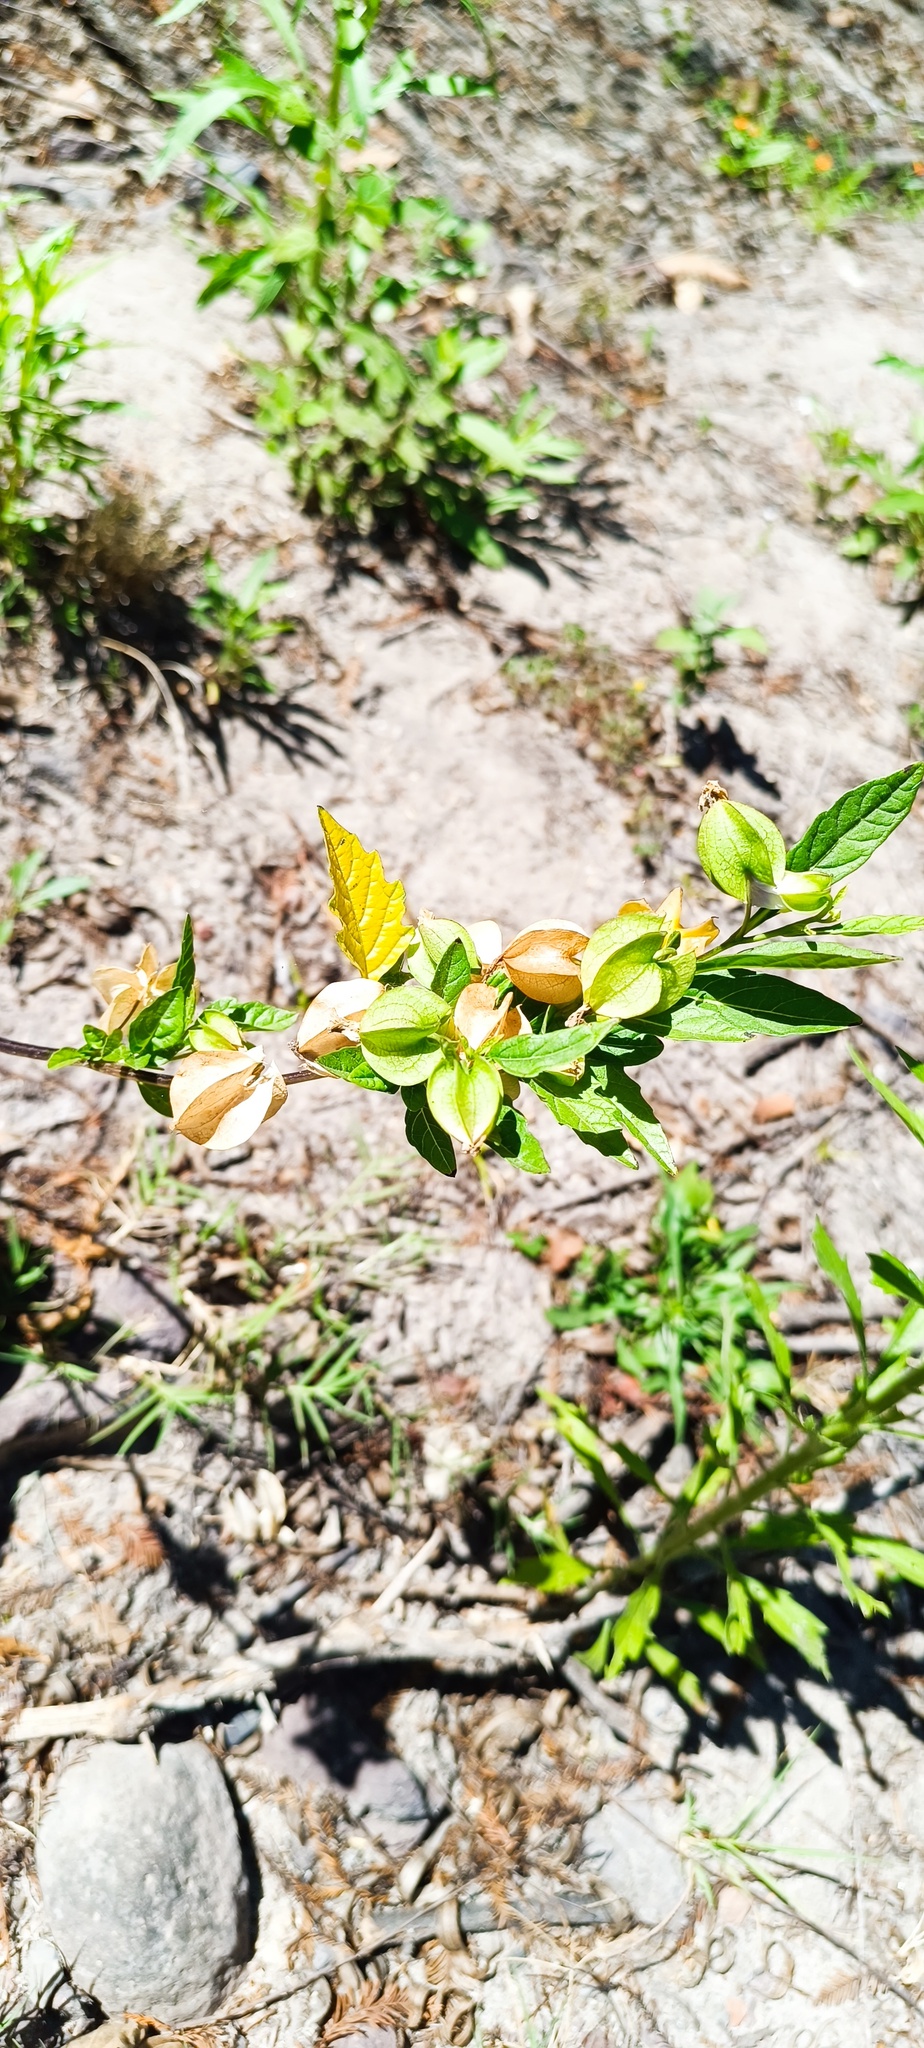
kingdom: Plantae
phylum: Tracheophyta
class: Magnoliopsida
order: Solanales
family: Solanaceae
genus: Nicandra
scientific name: Nicandra physalodes
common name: Apple-of-peru
